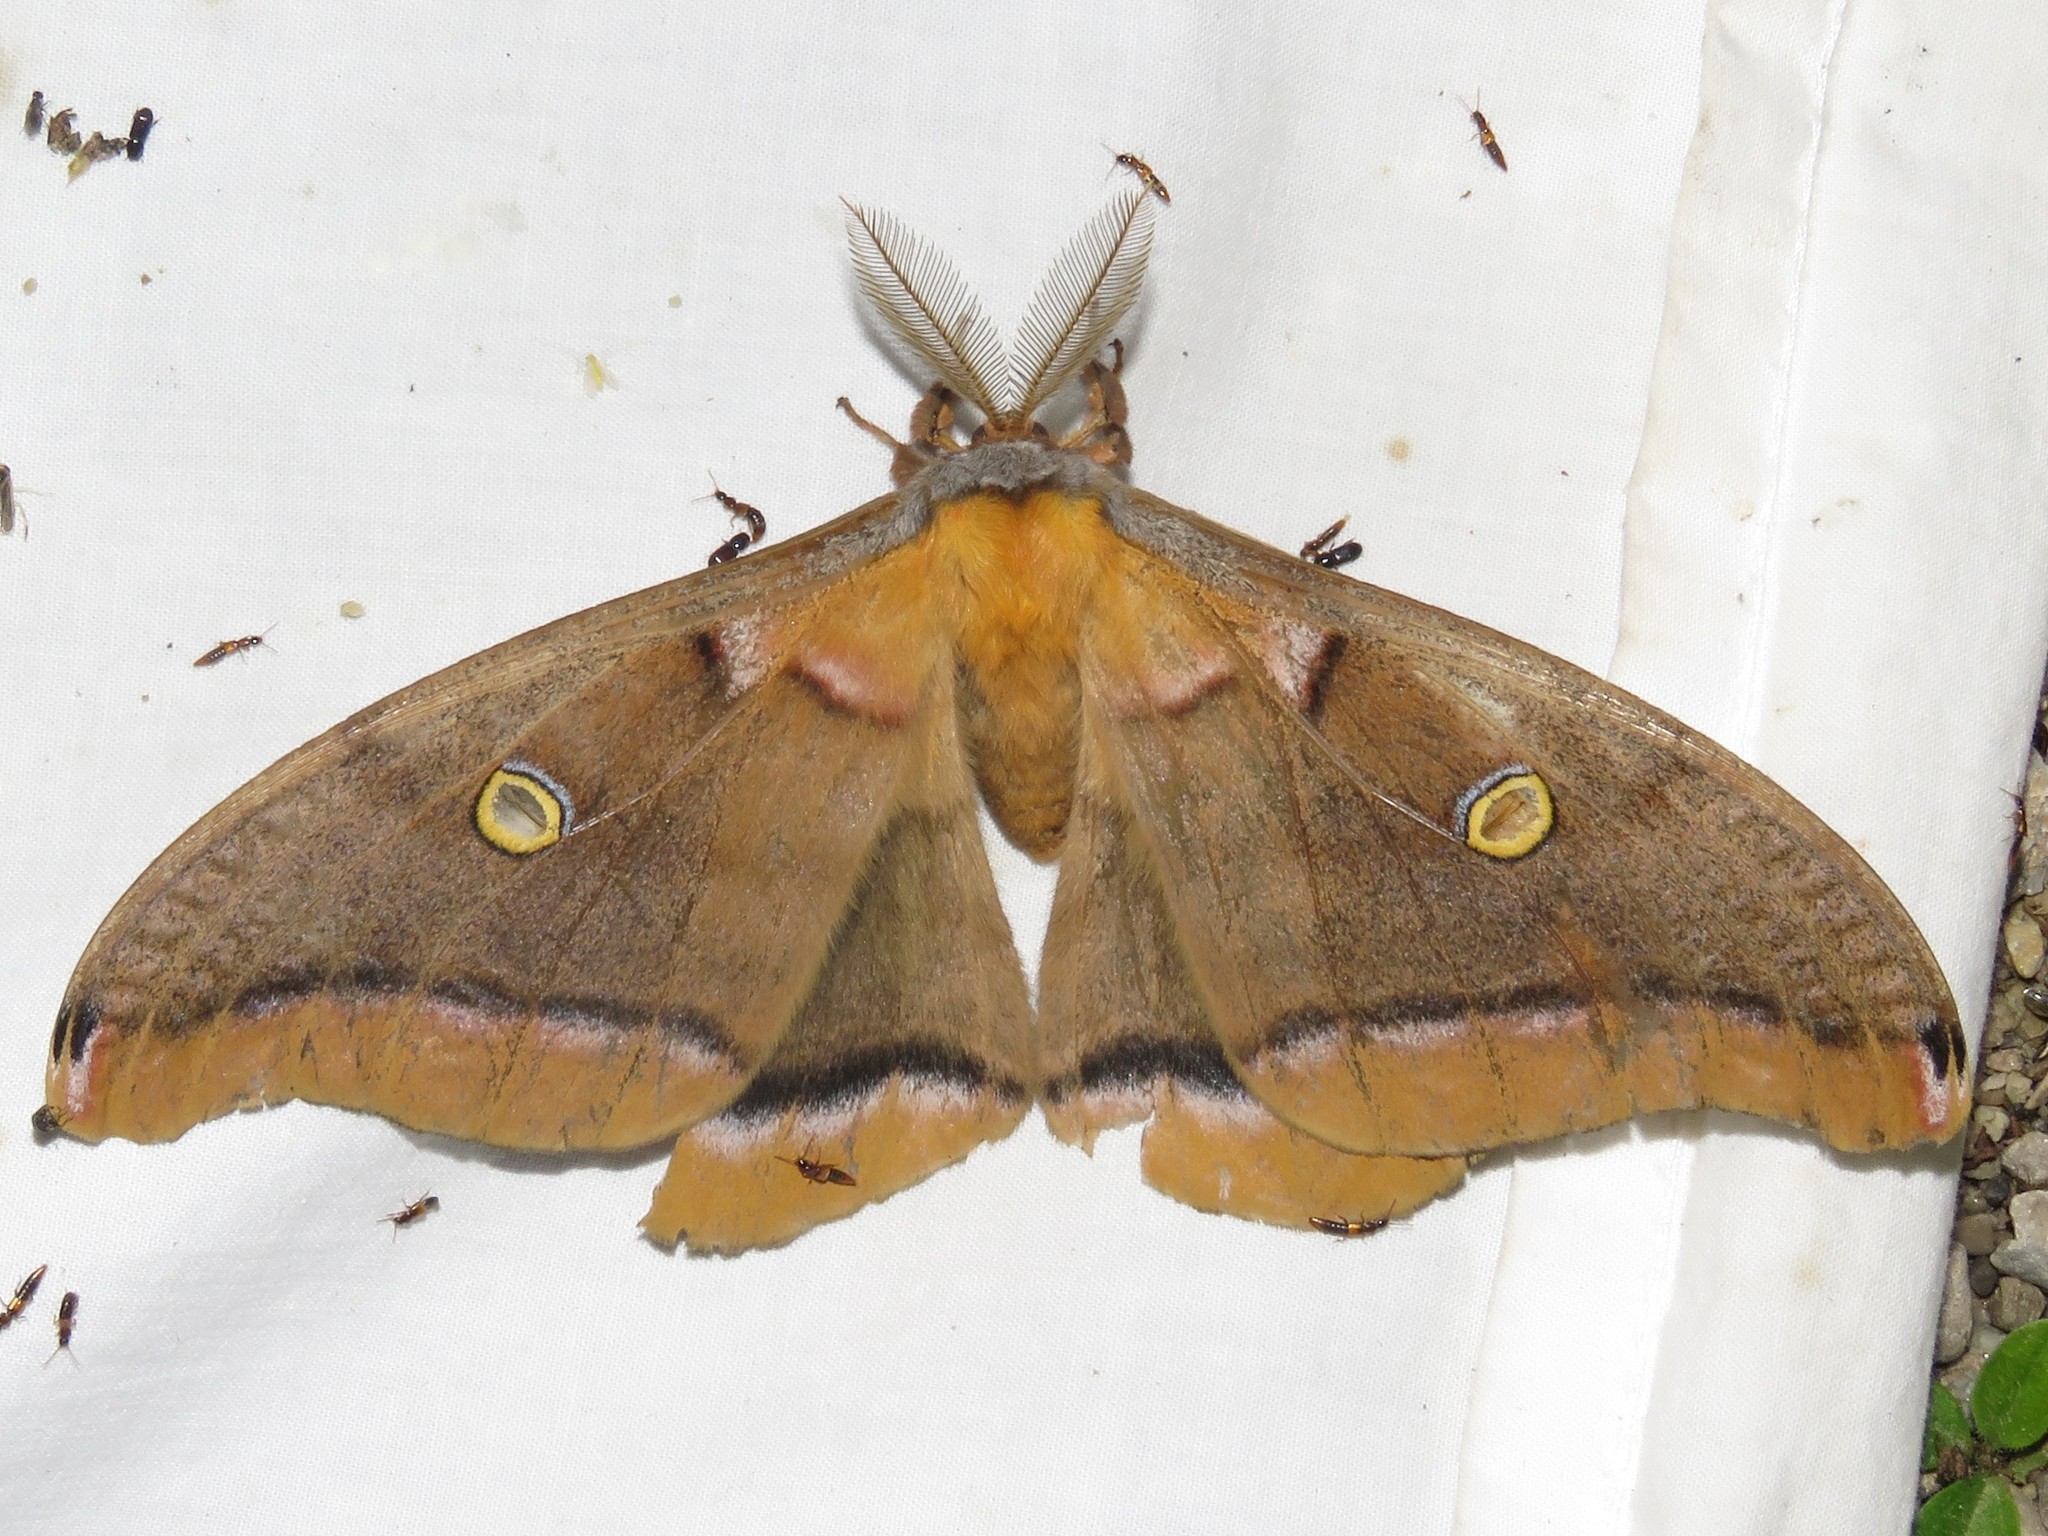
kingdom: Animalia
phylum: Arthropoda
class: Insecta
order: Lepidoptera
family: Saturniidae
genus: Antheraea
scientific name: Antheraea polyphemus
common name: Polyphemus moth
